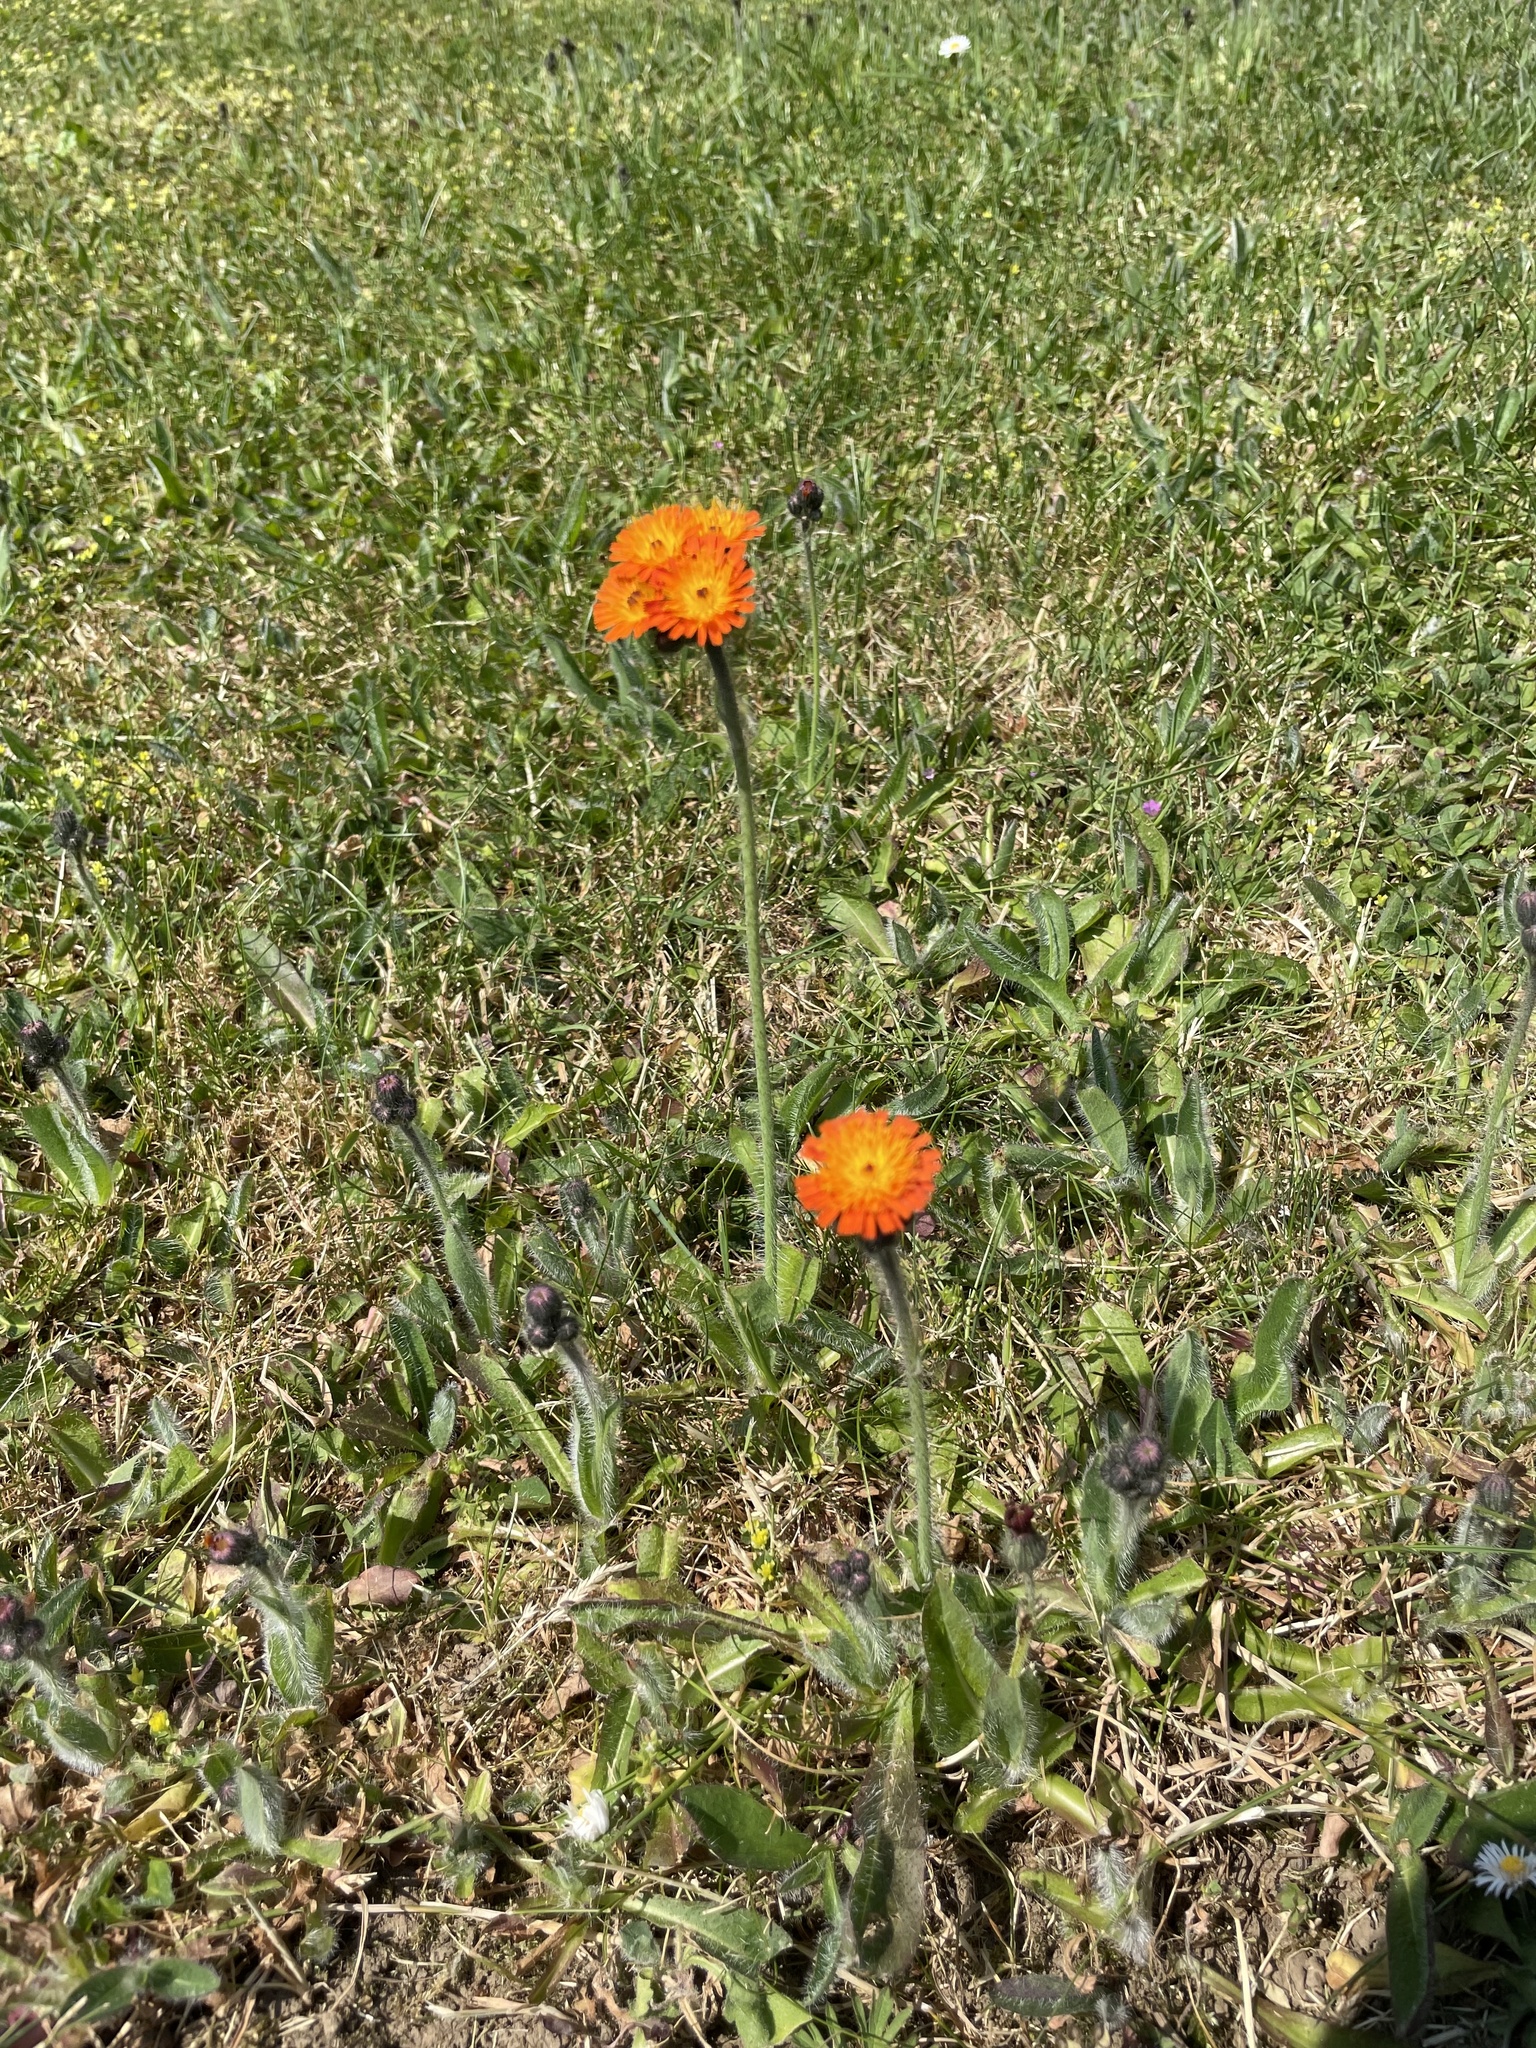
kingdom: Plantae
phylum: Tracheophyta
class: Magnoliopsida
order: Asterales
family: Asteraceae
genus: Pilosella
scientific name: Pilosella aurantiaca
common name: Fox-and-cubs
